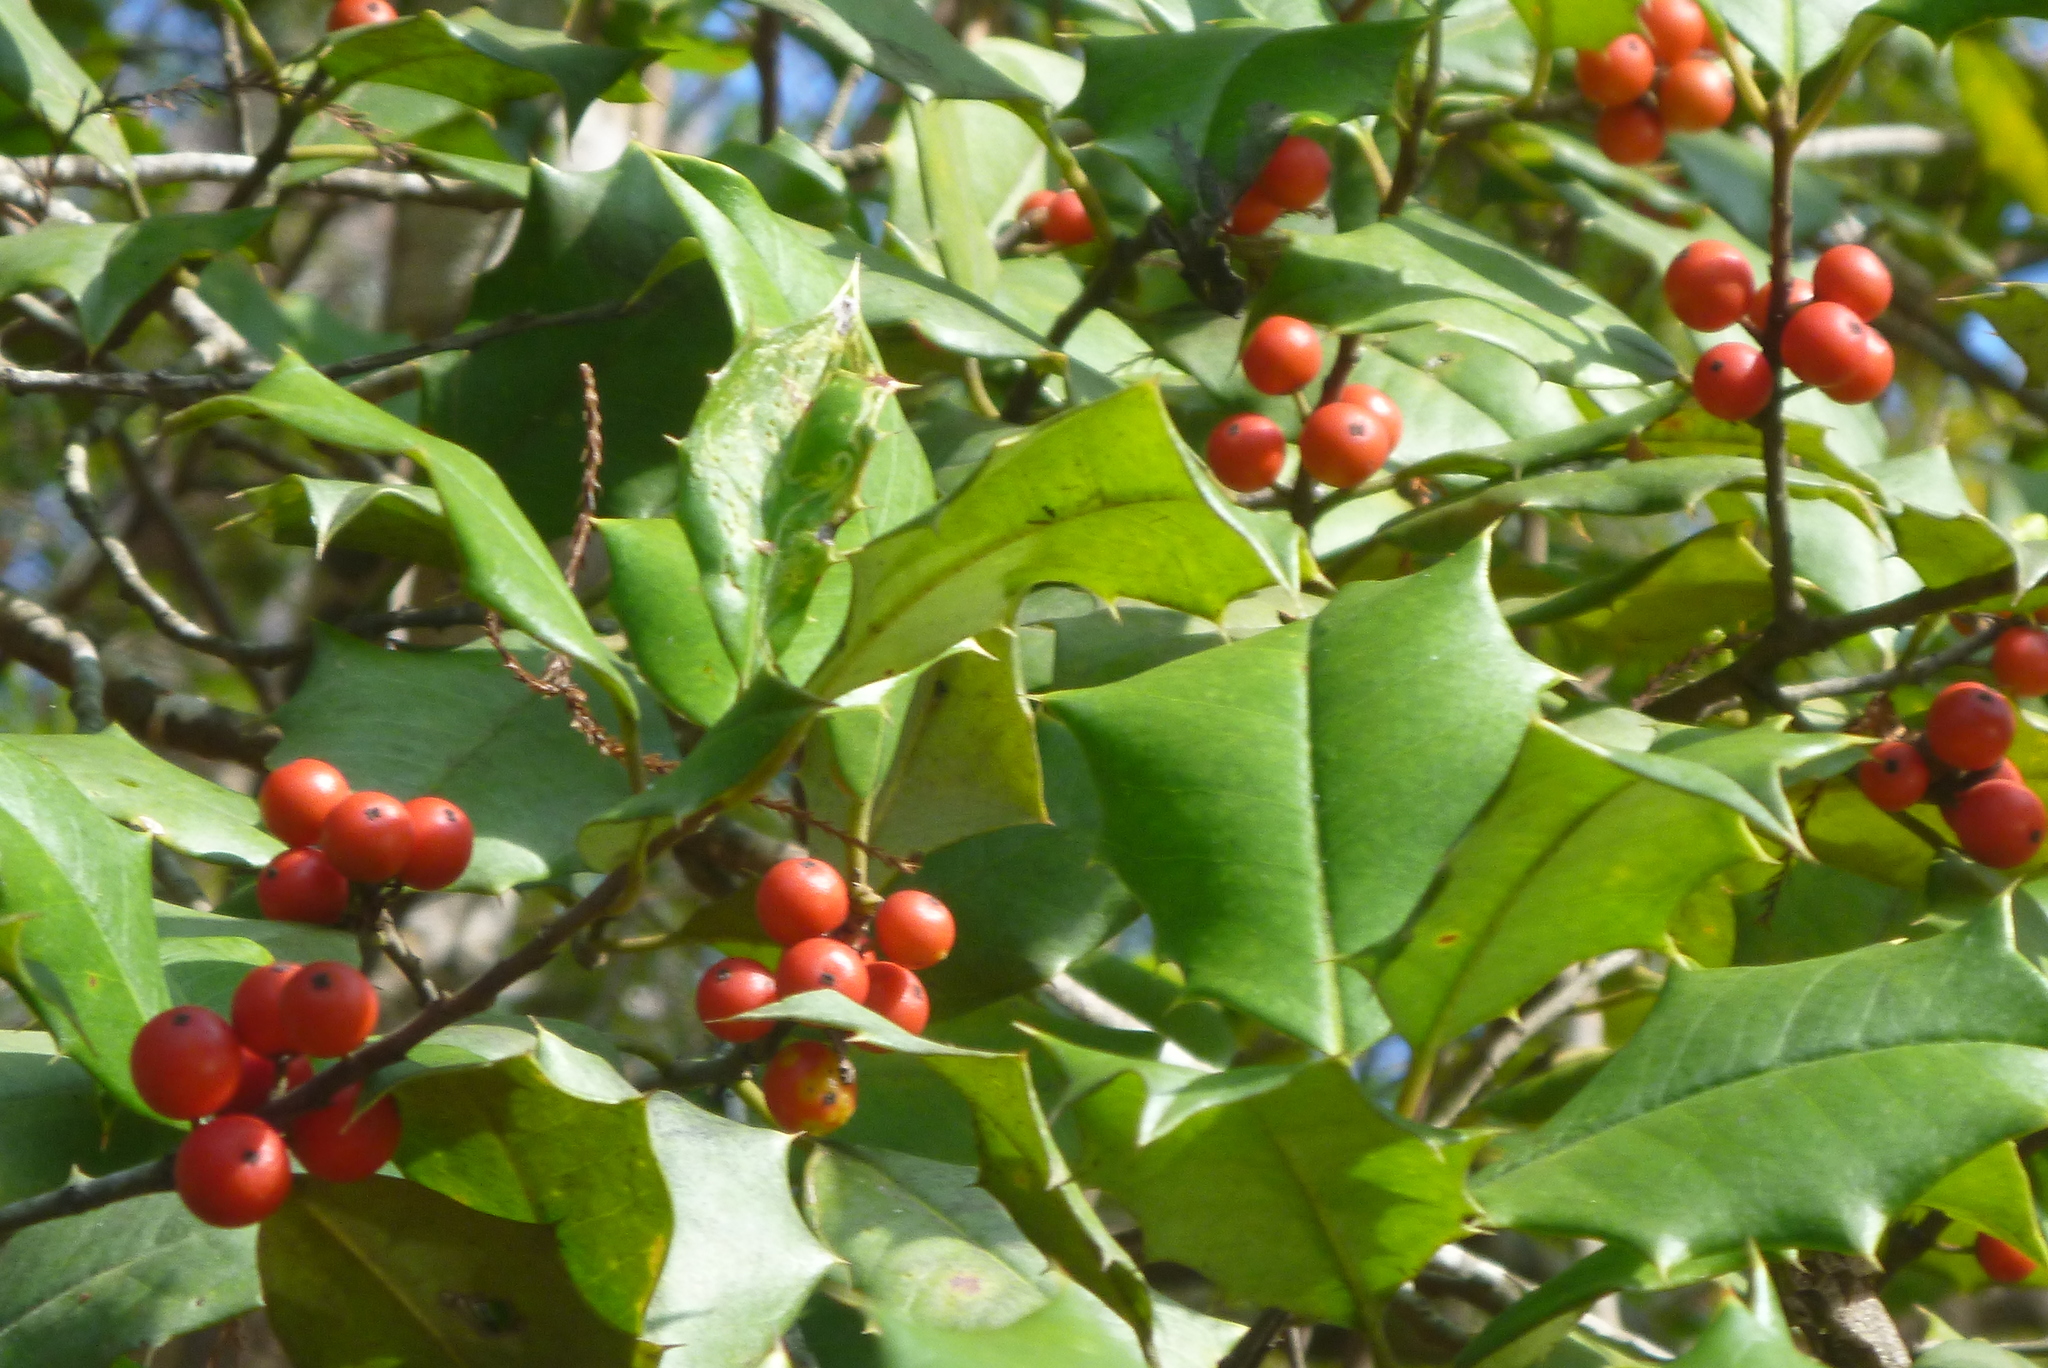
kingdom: Plantae
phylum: Tracheophyta
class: Magnoliopsida
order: Aquifoliales
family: Aquifoliaceae
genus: Ilex
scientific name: Ilex opaca
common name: American holly
